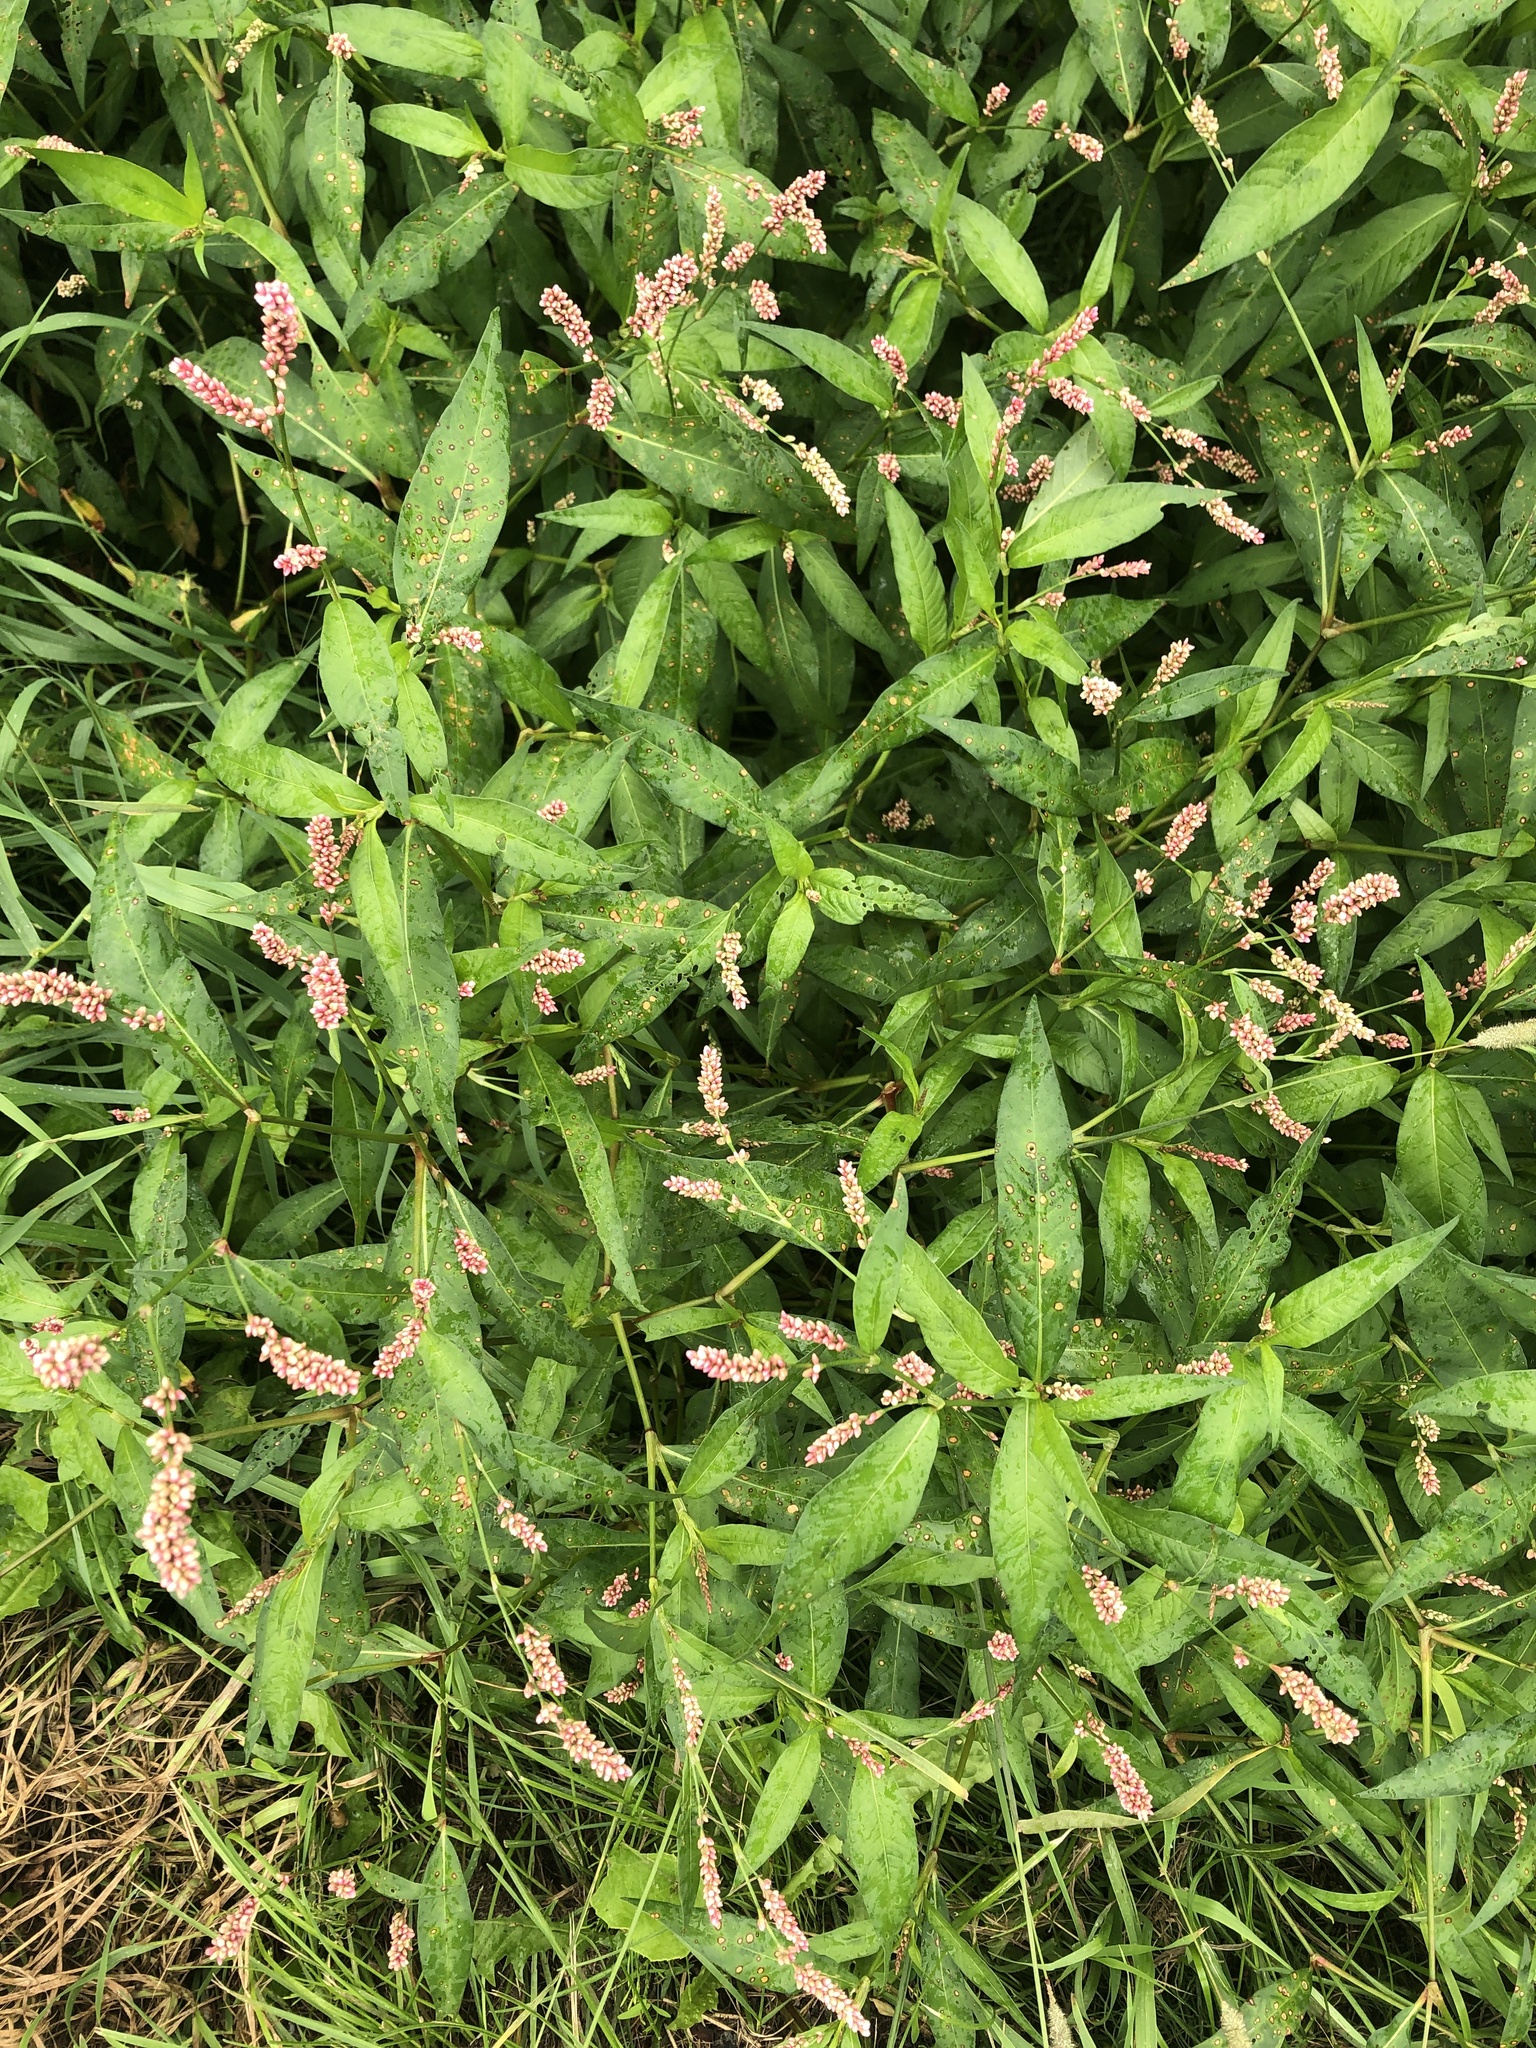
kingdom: Plantae
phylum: Tracheophyta
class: Magnoliopsida
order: Caryophyllales
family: Polygonaceae
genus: Persicaria
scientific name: Persicaria maculosa
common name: Redshank
